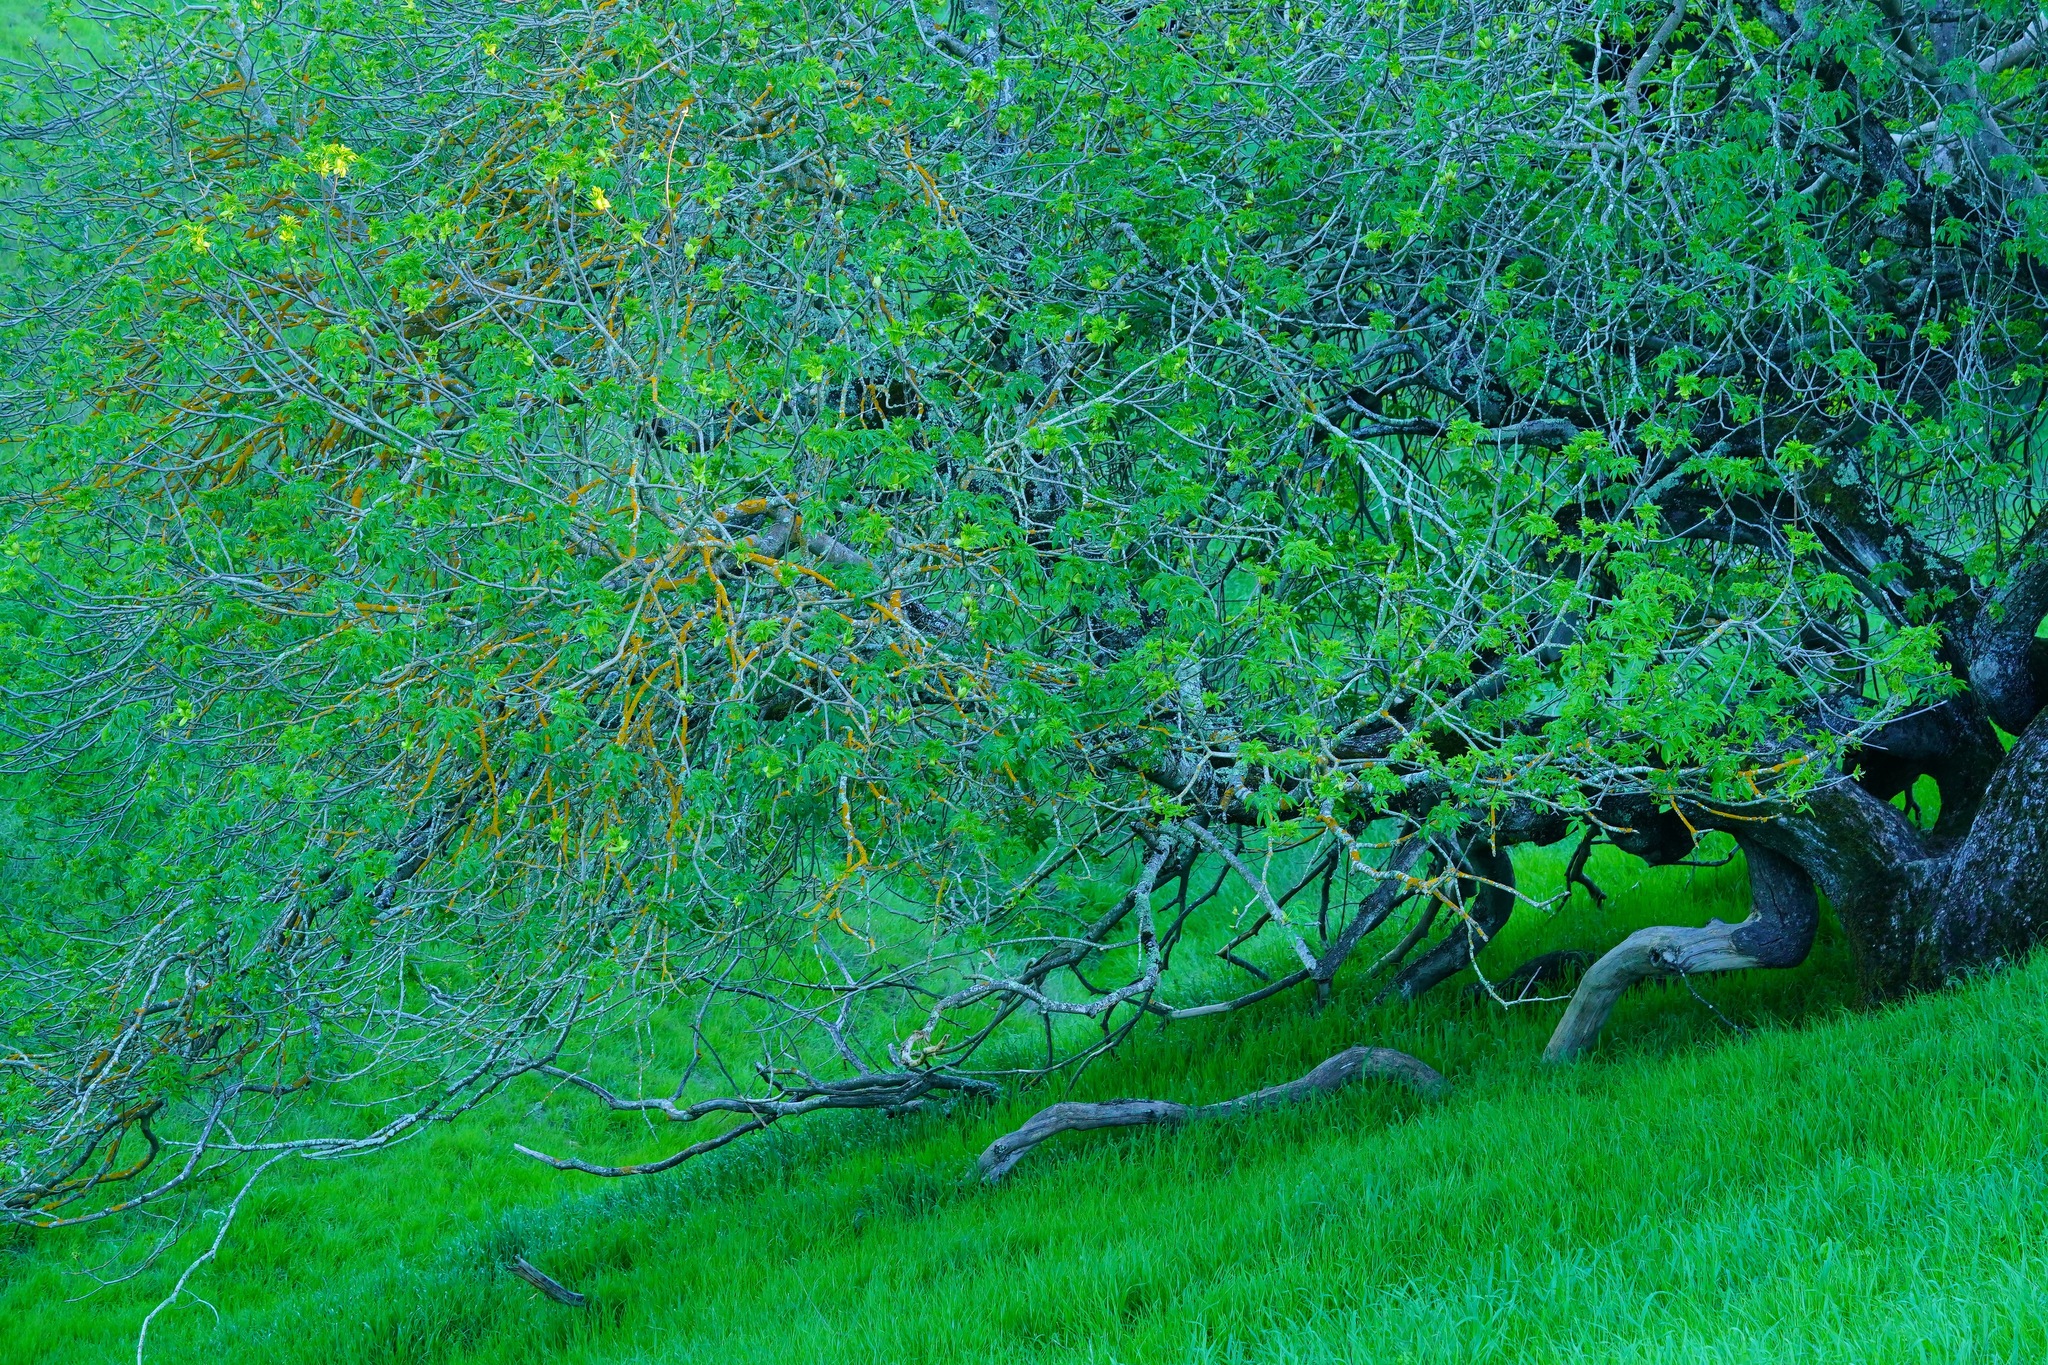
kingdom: Plantae
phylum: Tracheophyta
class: Magnoliopsida
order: Sapindales
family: Sapindaceae
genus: Aesculus
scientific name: Aesculus californica
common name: California buckeye
